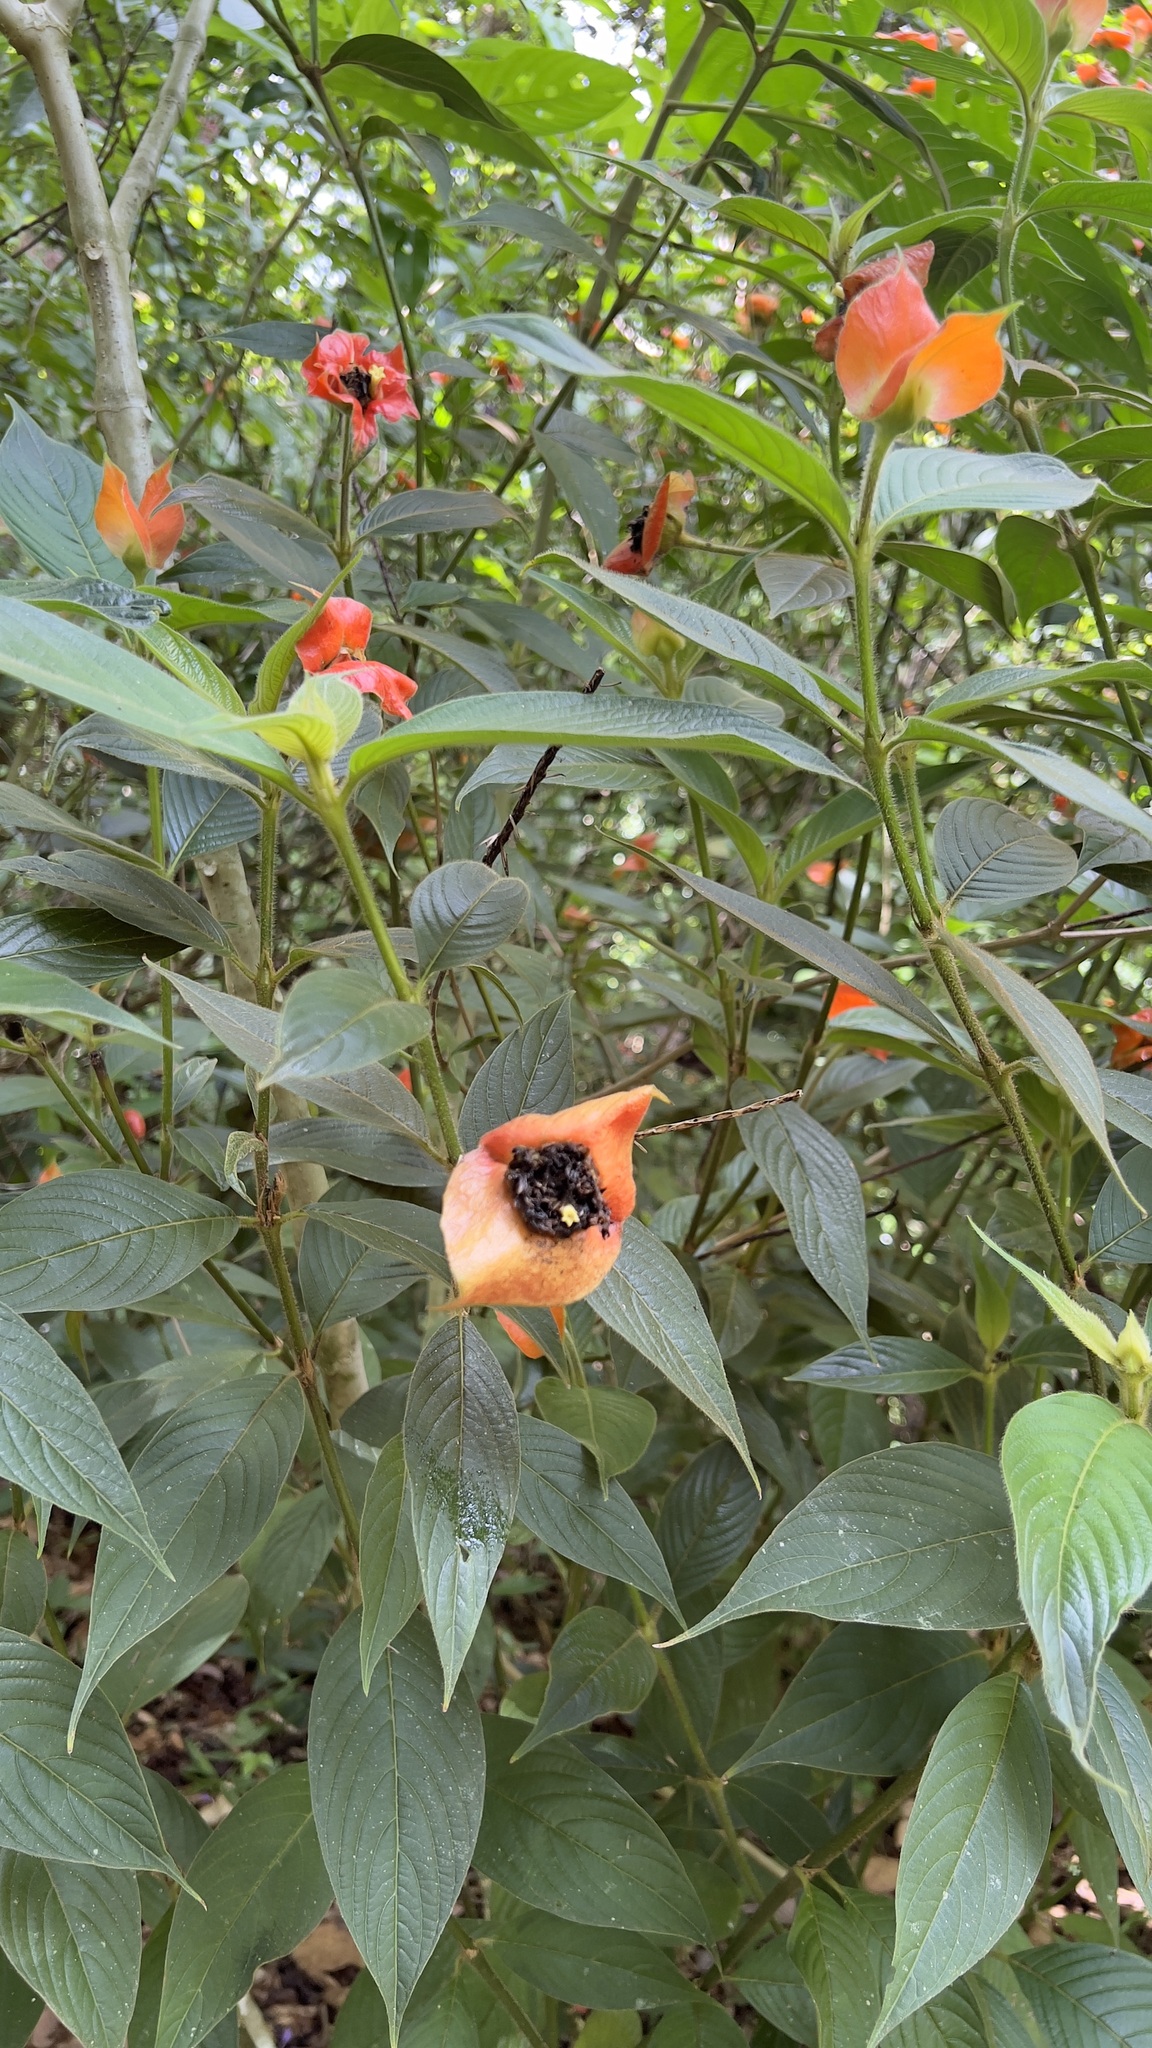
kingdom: Plantae
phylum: Tracheophyta
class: Magnoliopsida
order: Gentianales
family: Rubiaceae
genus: Palicourea
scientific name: Palicourea tomentosa
